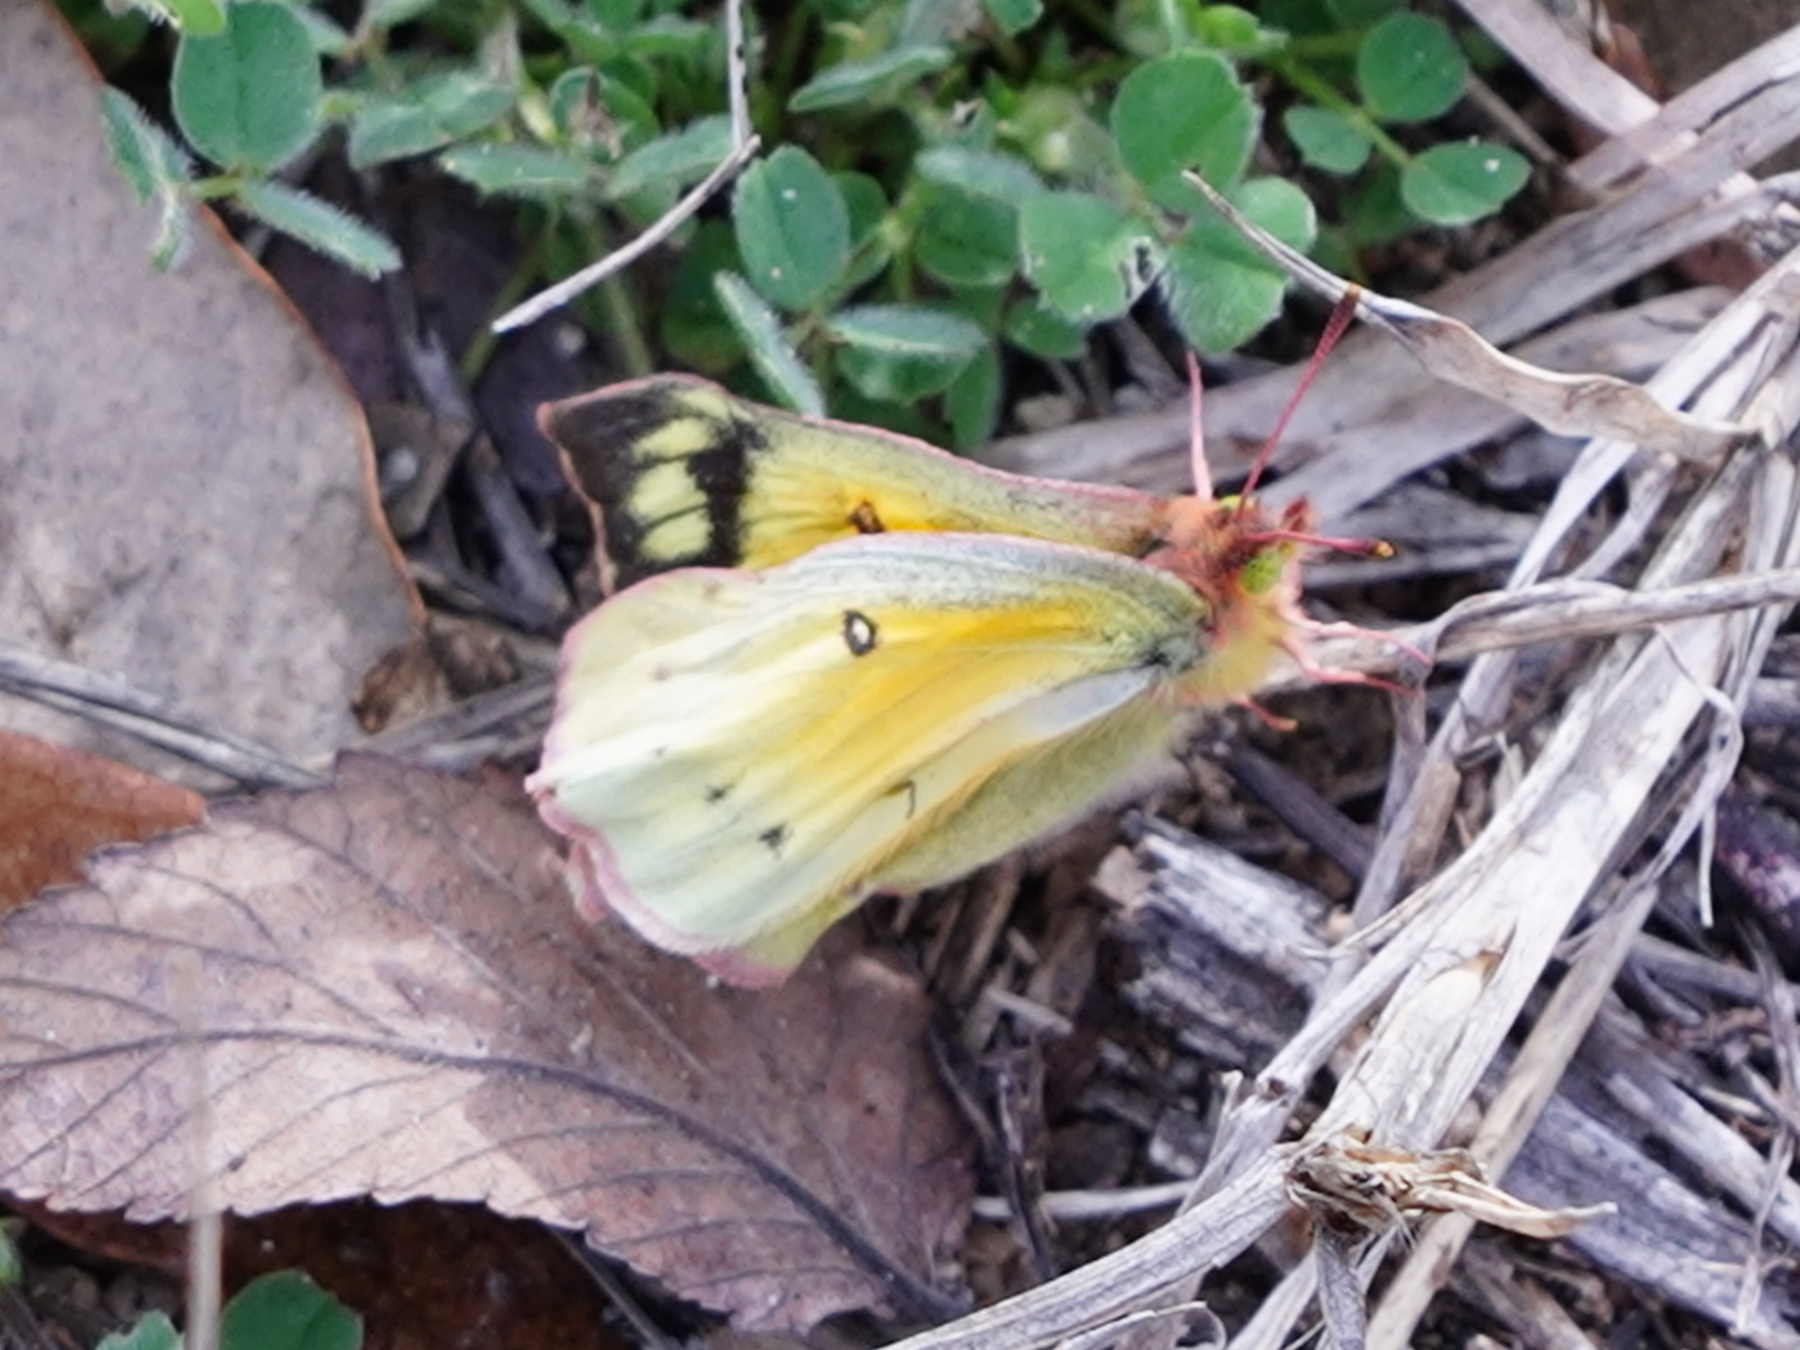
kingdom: Animalia
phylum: Arthropoda
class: Insecta
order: Lepidoptera
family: Pieridae
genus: Colias
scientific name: Colias eurytheme
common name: Alfalfa butterfly
